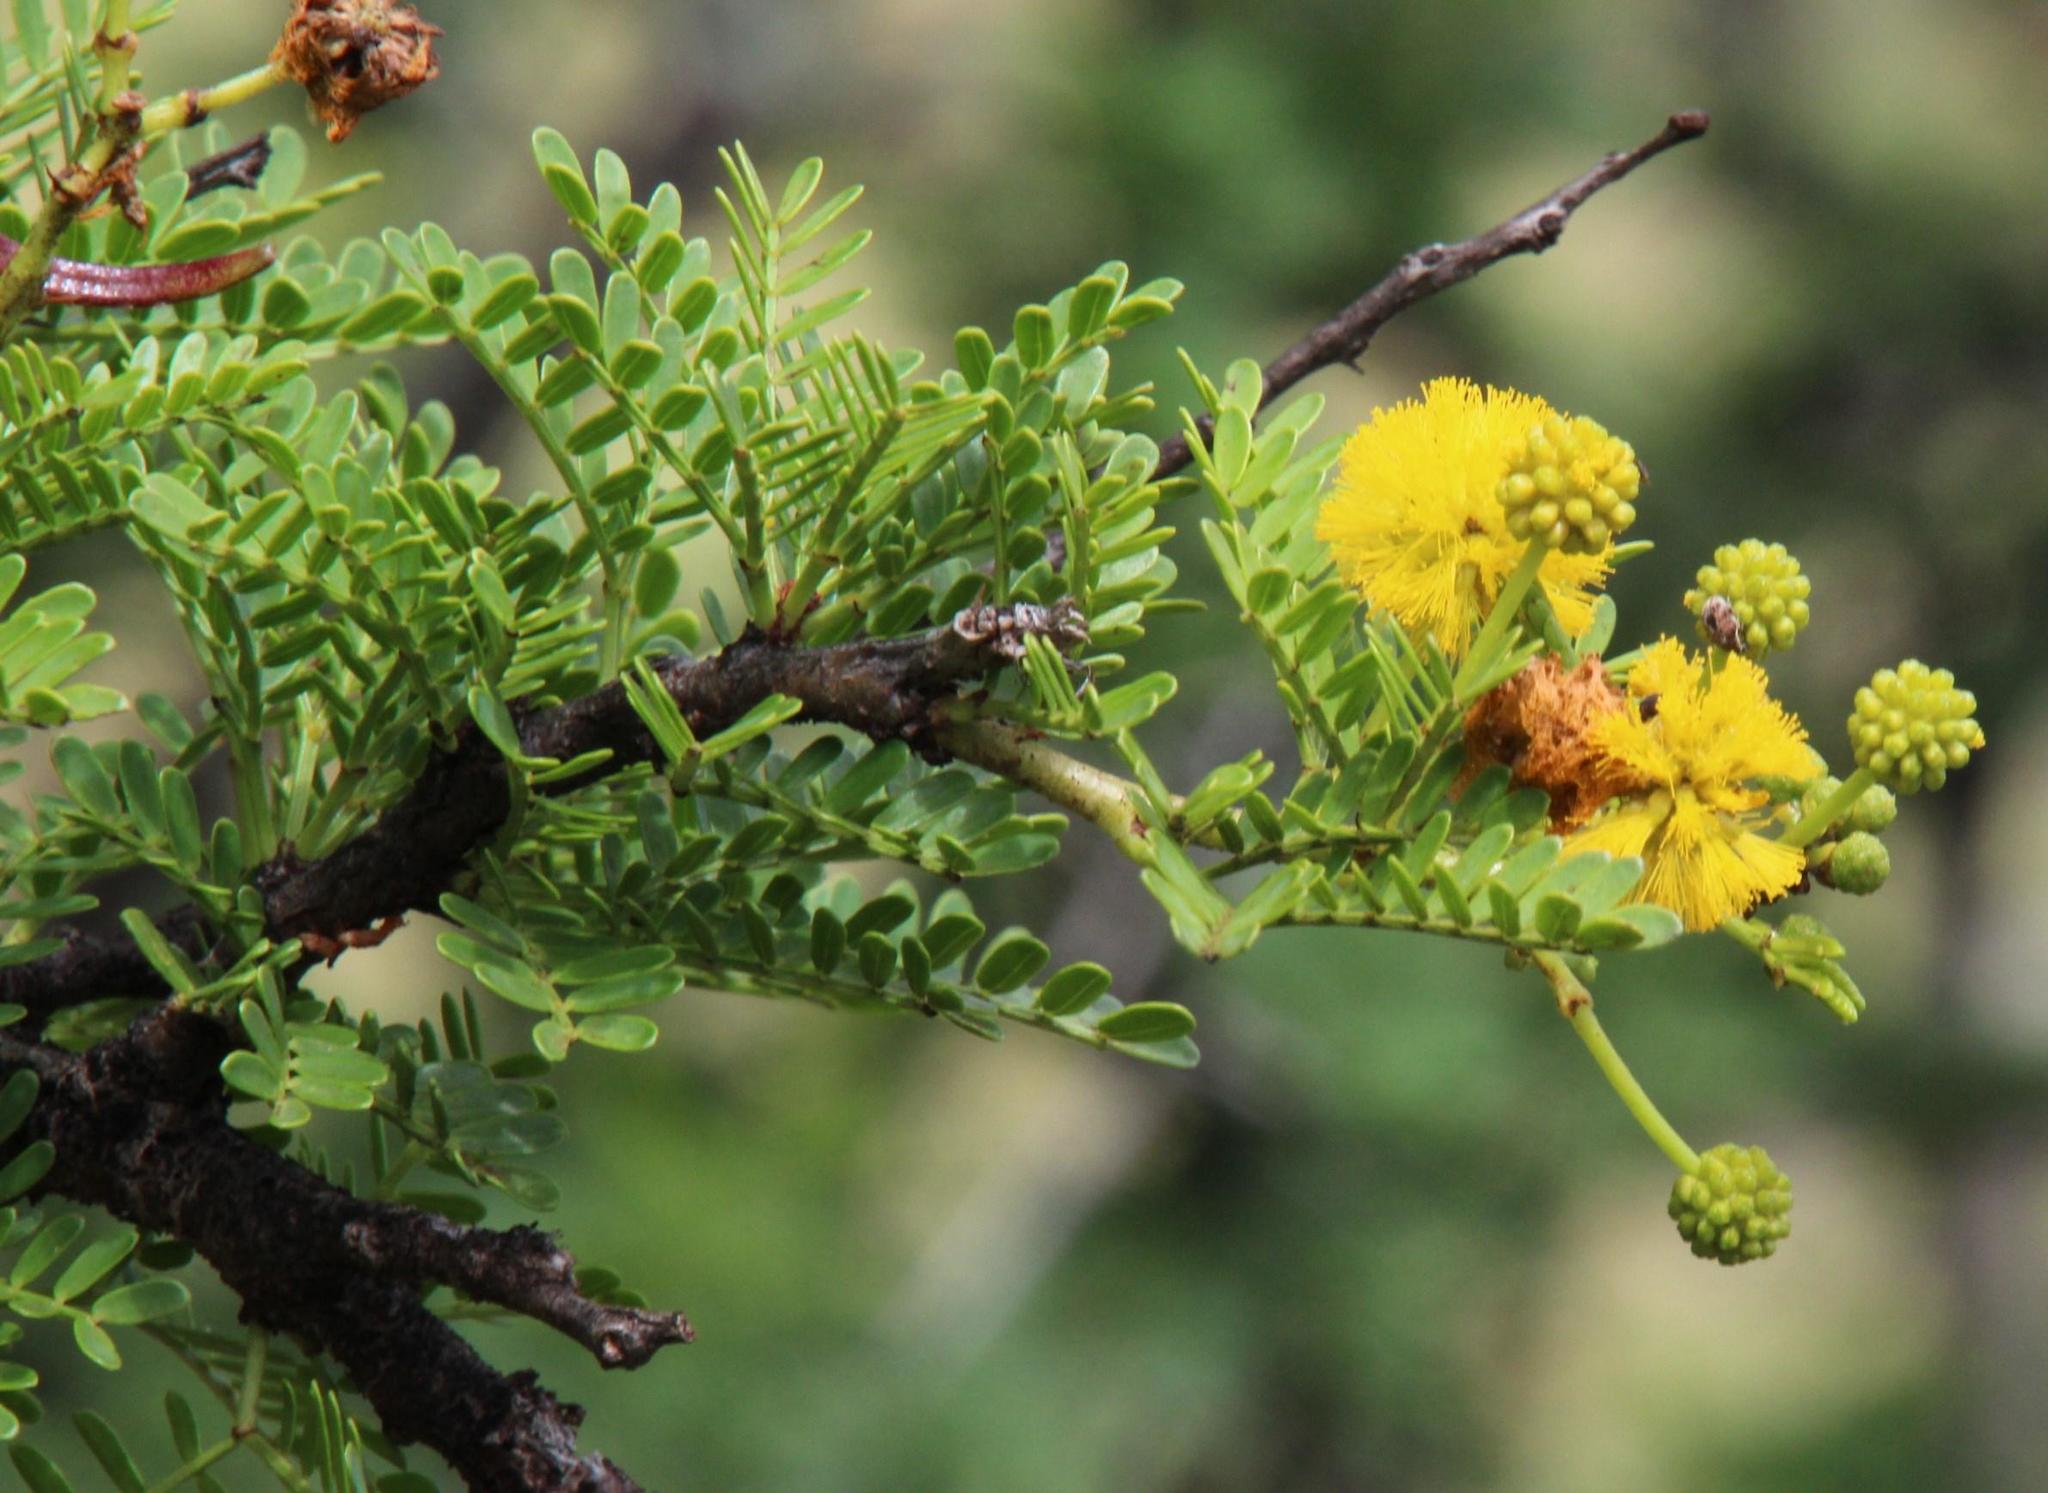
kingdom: Plantae
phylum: Tracheophyta
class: Magnoliopsida
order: Fabales
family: Fabaceae
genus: Vachellia
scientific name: Vachellia karroo
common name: Sweet thorn
